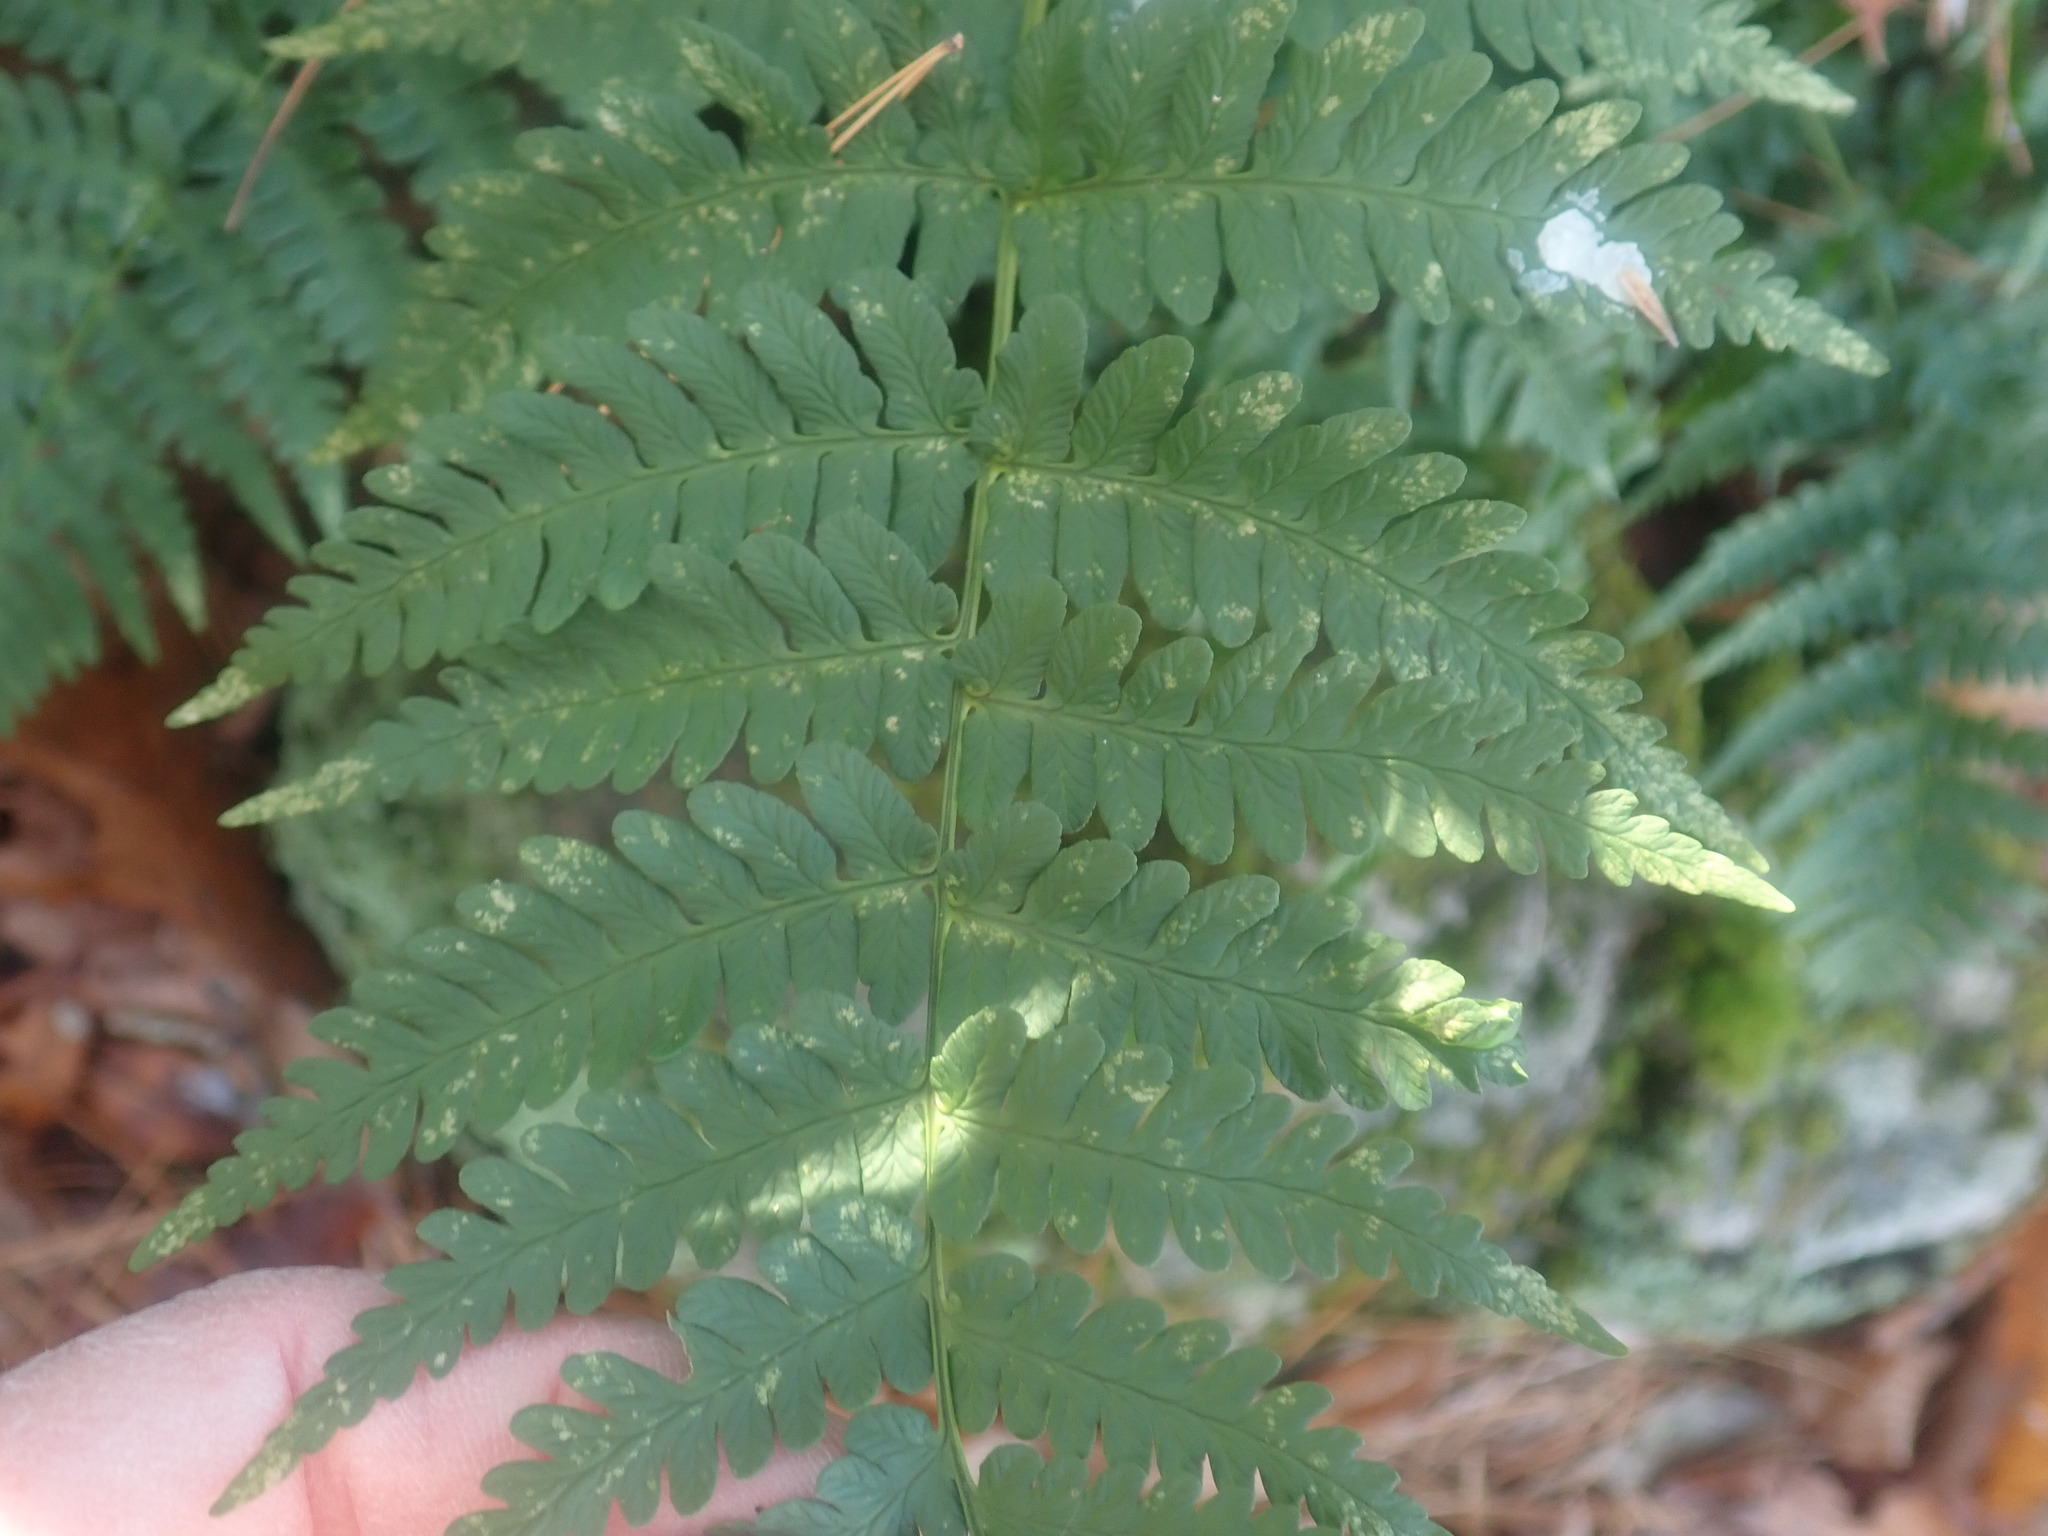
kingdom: Plantae
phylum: Tracheophyta
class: Polypodiopsida
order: Polypodiales
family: Dryopteridaceae
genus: Dryopteris
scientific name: Dryopteris marginalis
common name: Marginal wood fern
